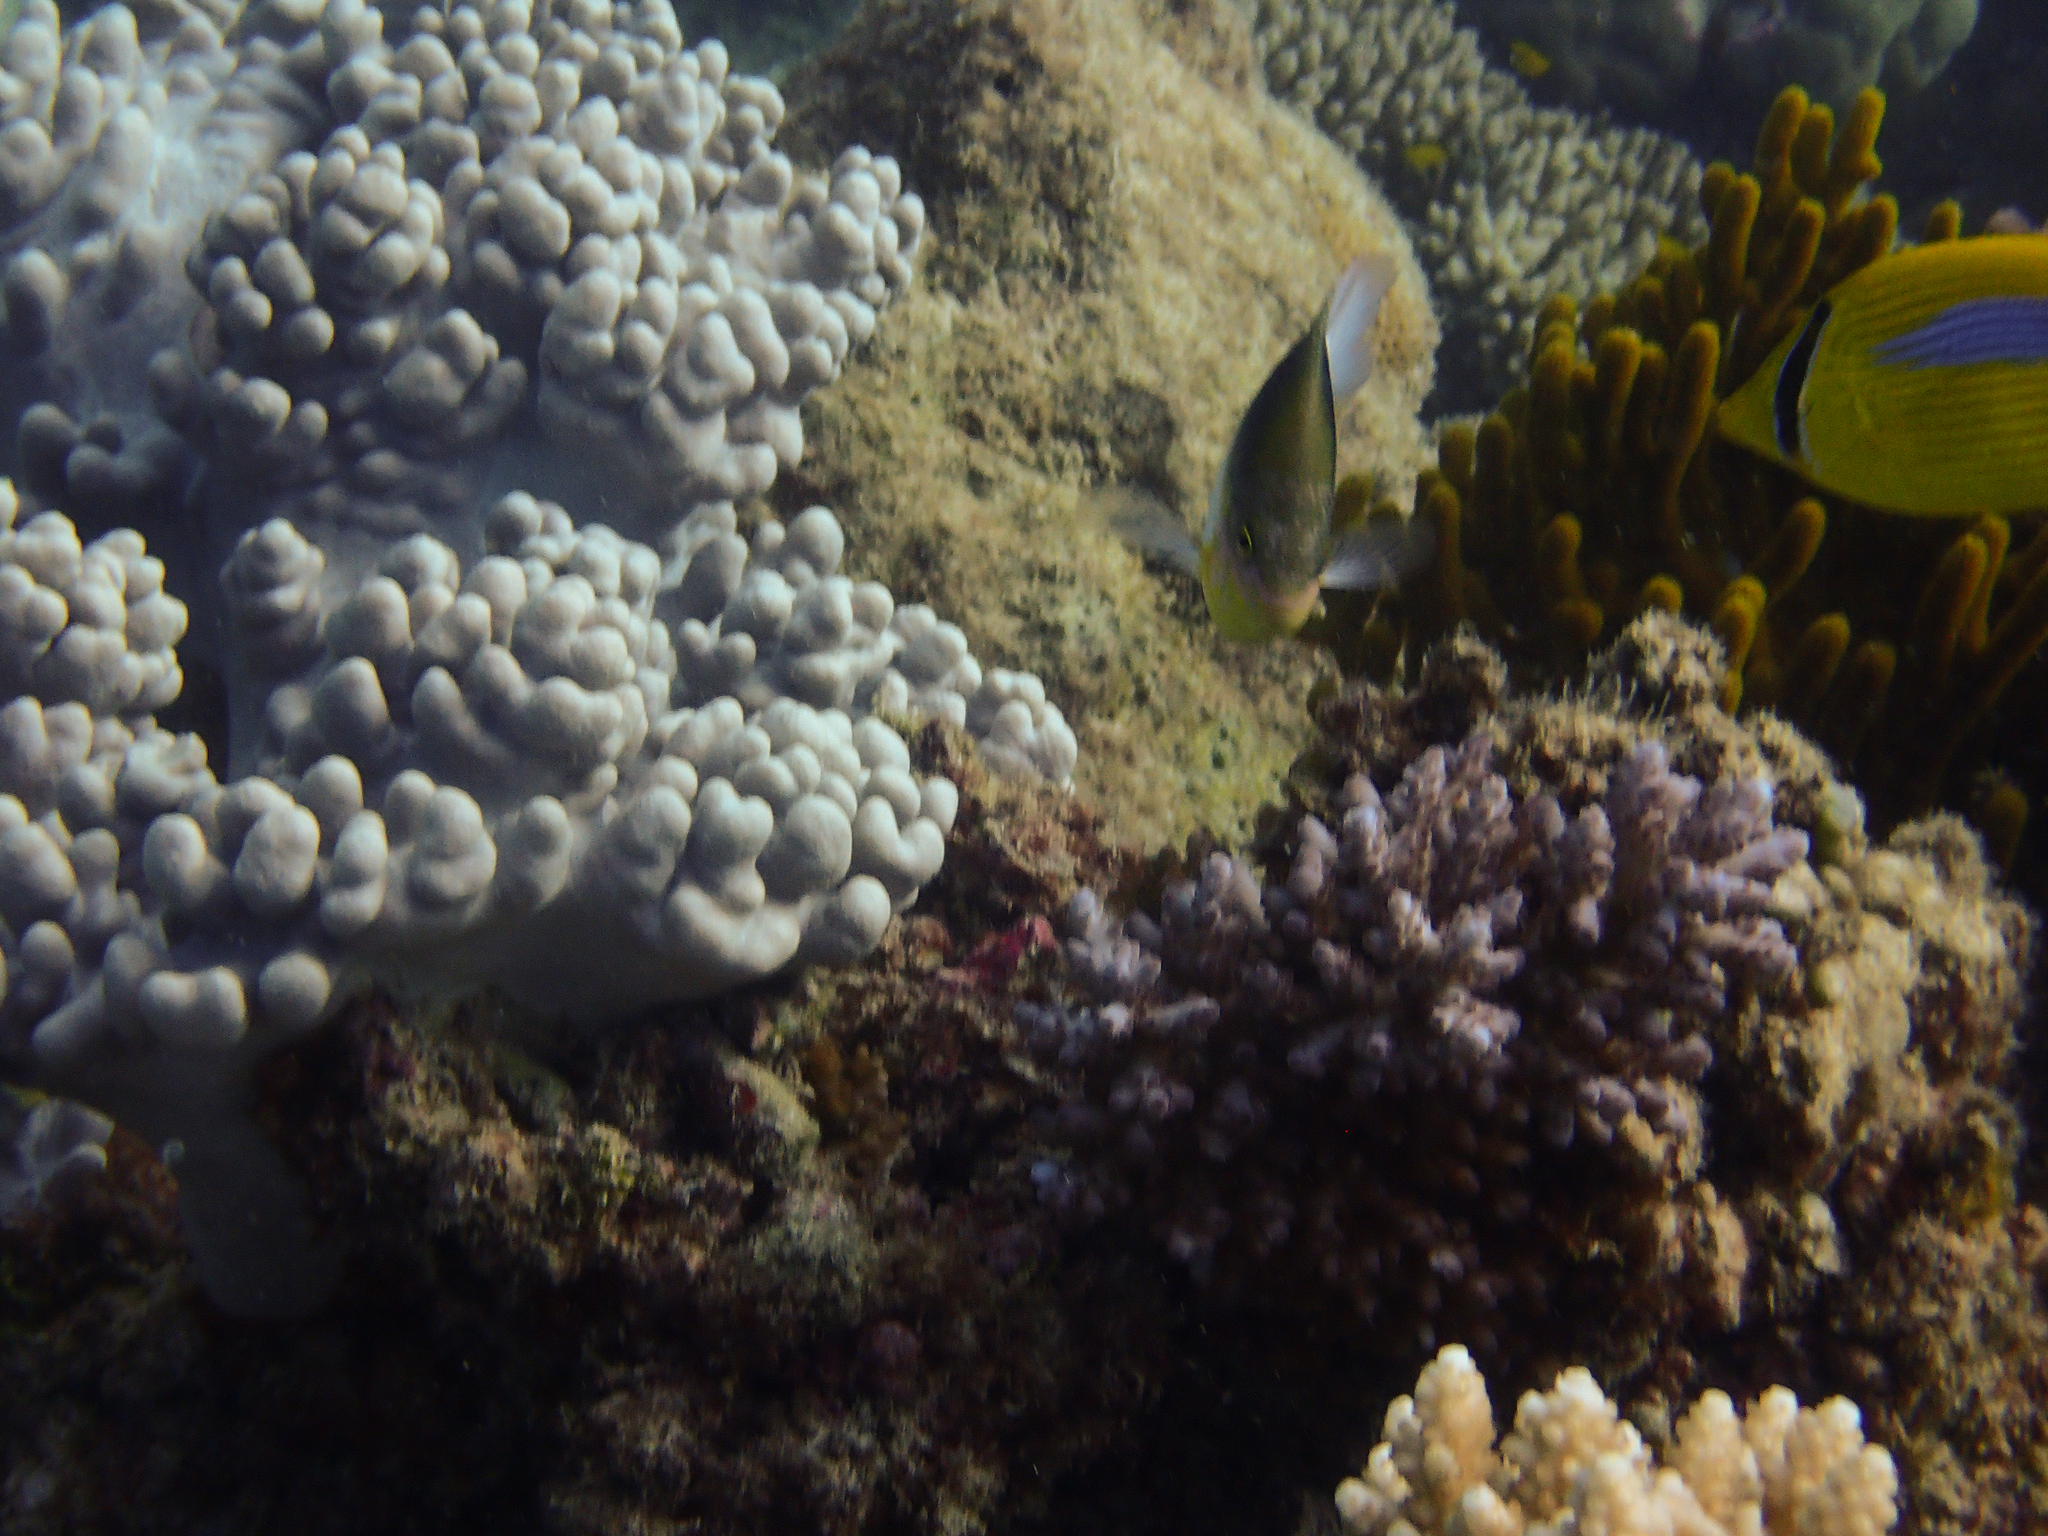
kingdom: Animalia
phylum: Chordata
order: Perciformes
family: Pomacentridae
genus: Dischistodus
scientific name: Dischistodus melanotus
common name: Black-vent damsel
